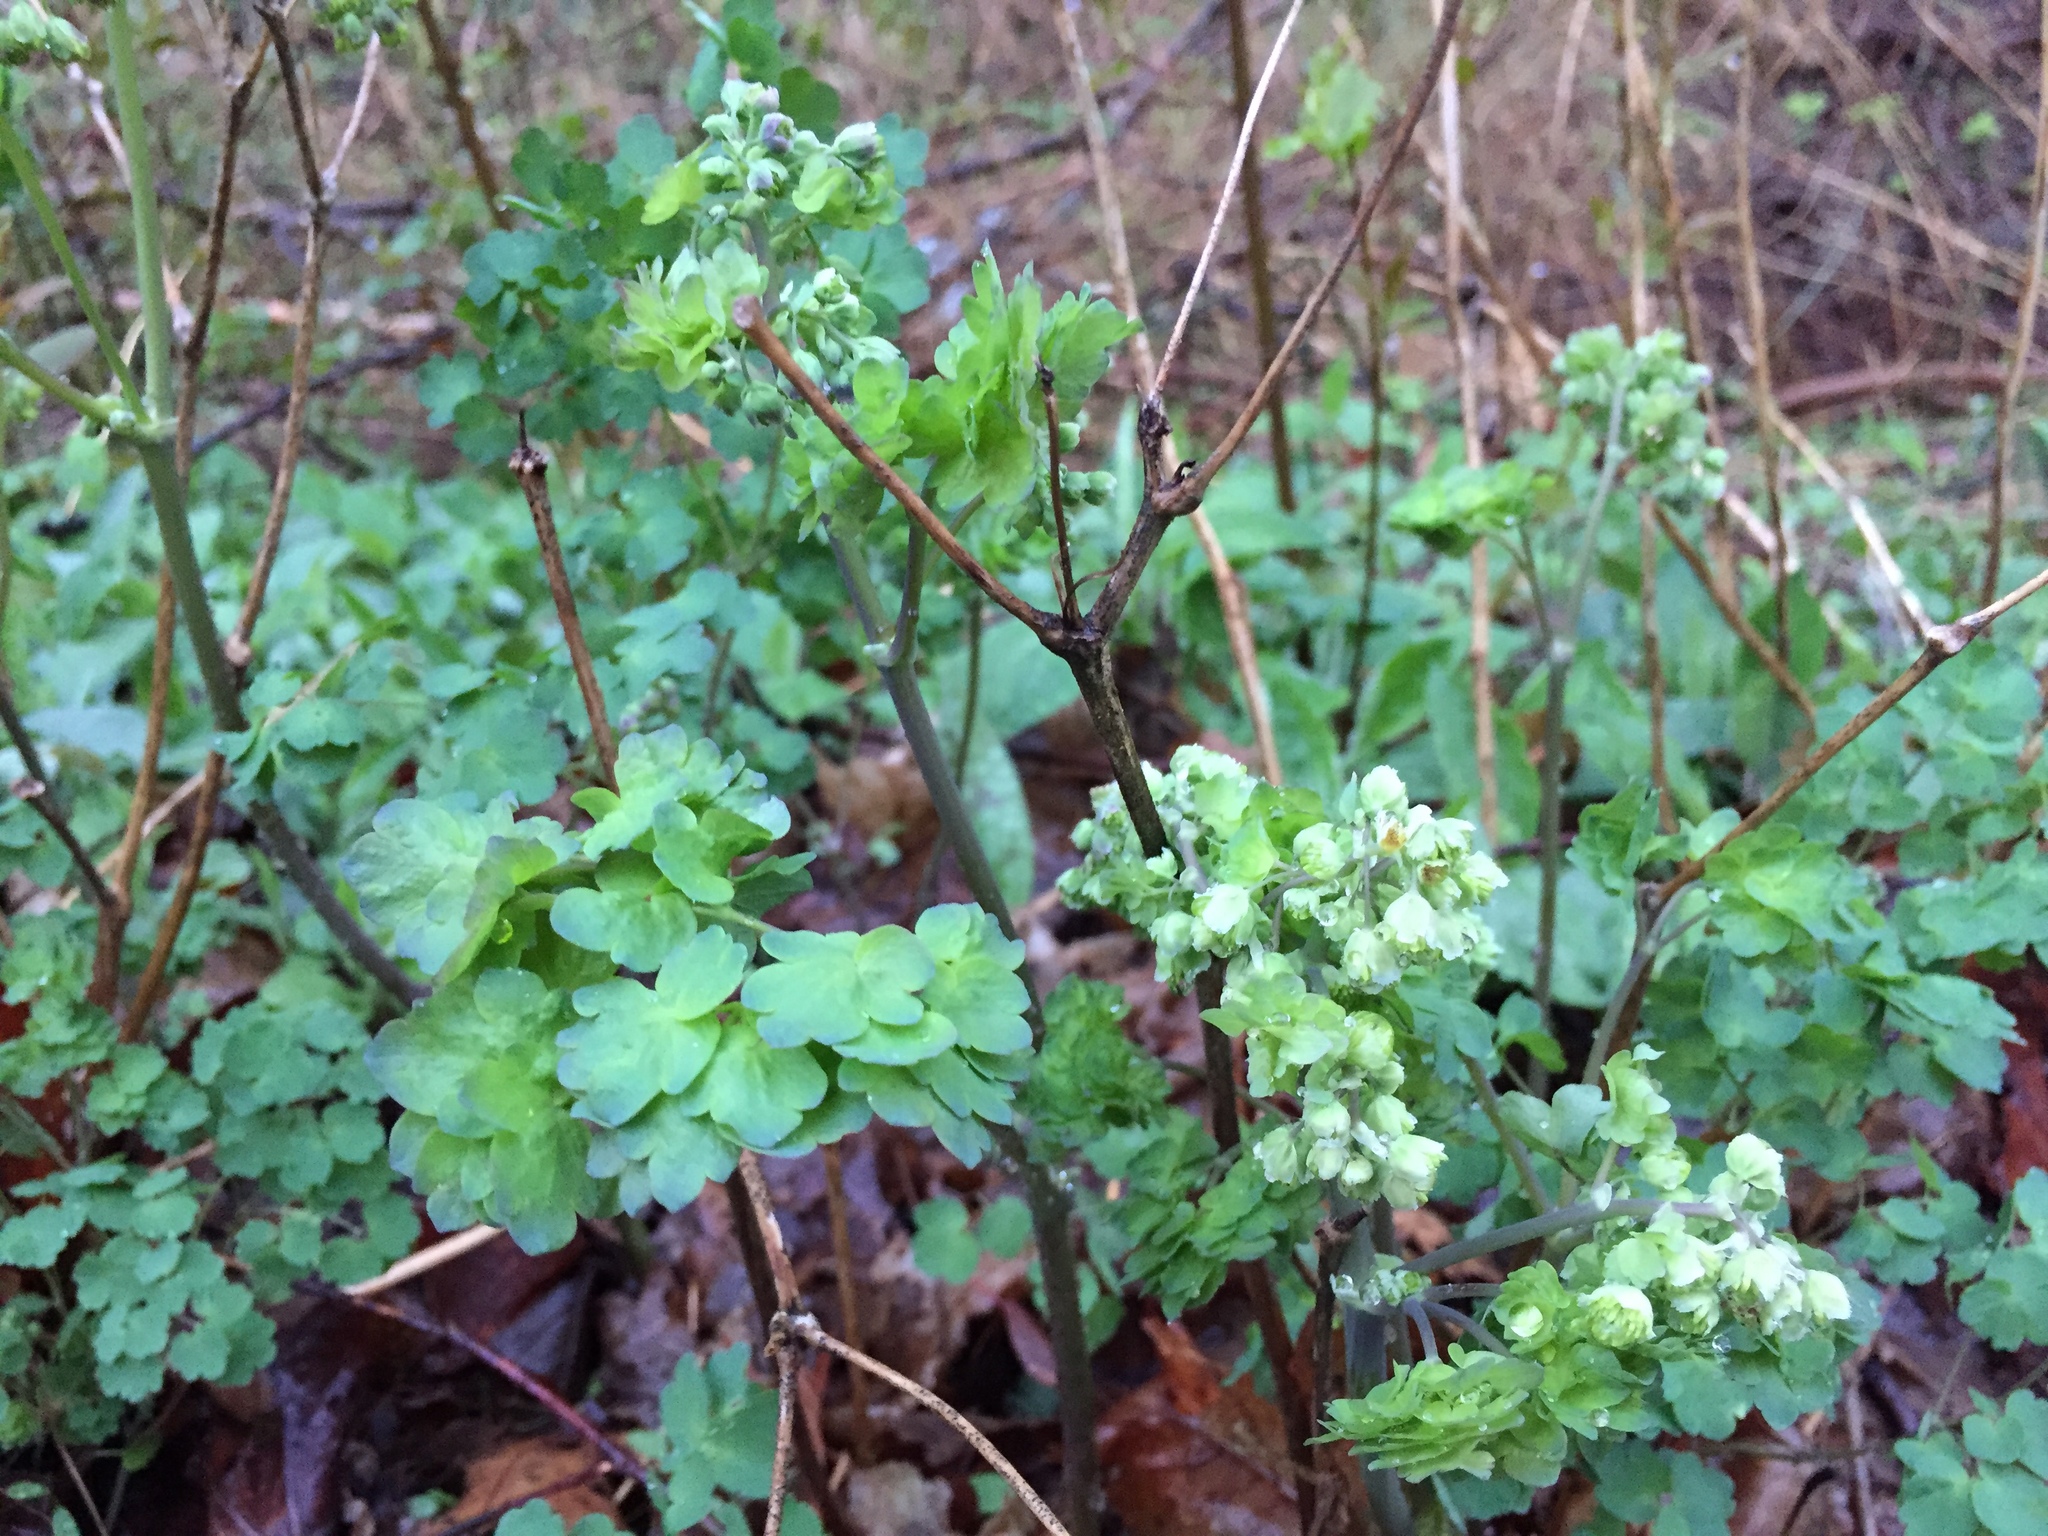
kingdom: Plantae
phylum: Tracheophyta
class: Magnoliopsida
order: Ranunculales
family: Ranunculaceae
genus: Thalictrum
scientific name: Thalictrum dioicum
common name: Early meadow-rue
